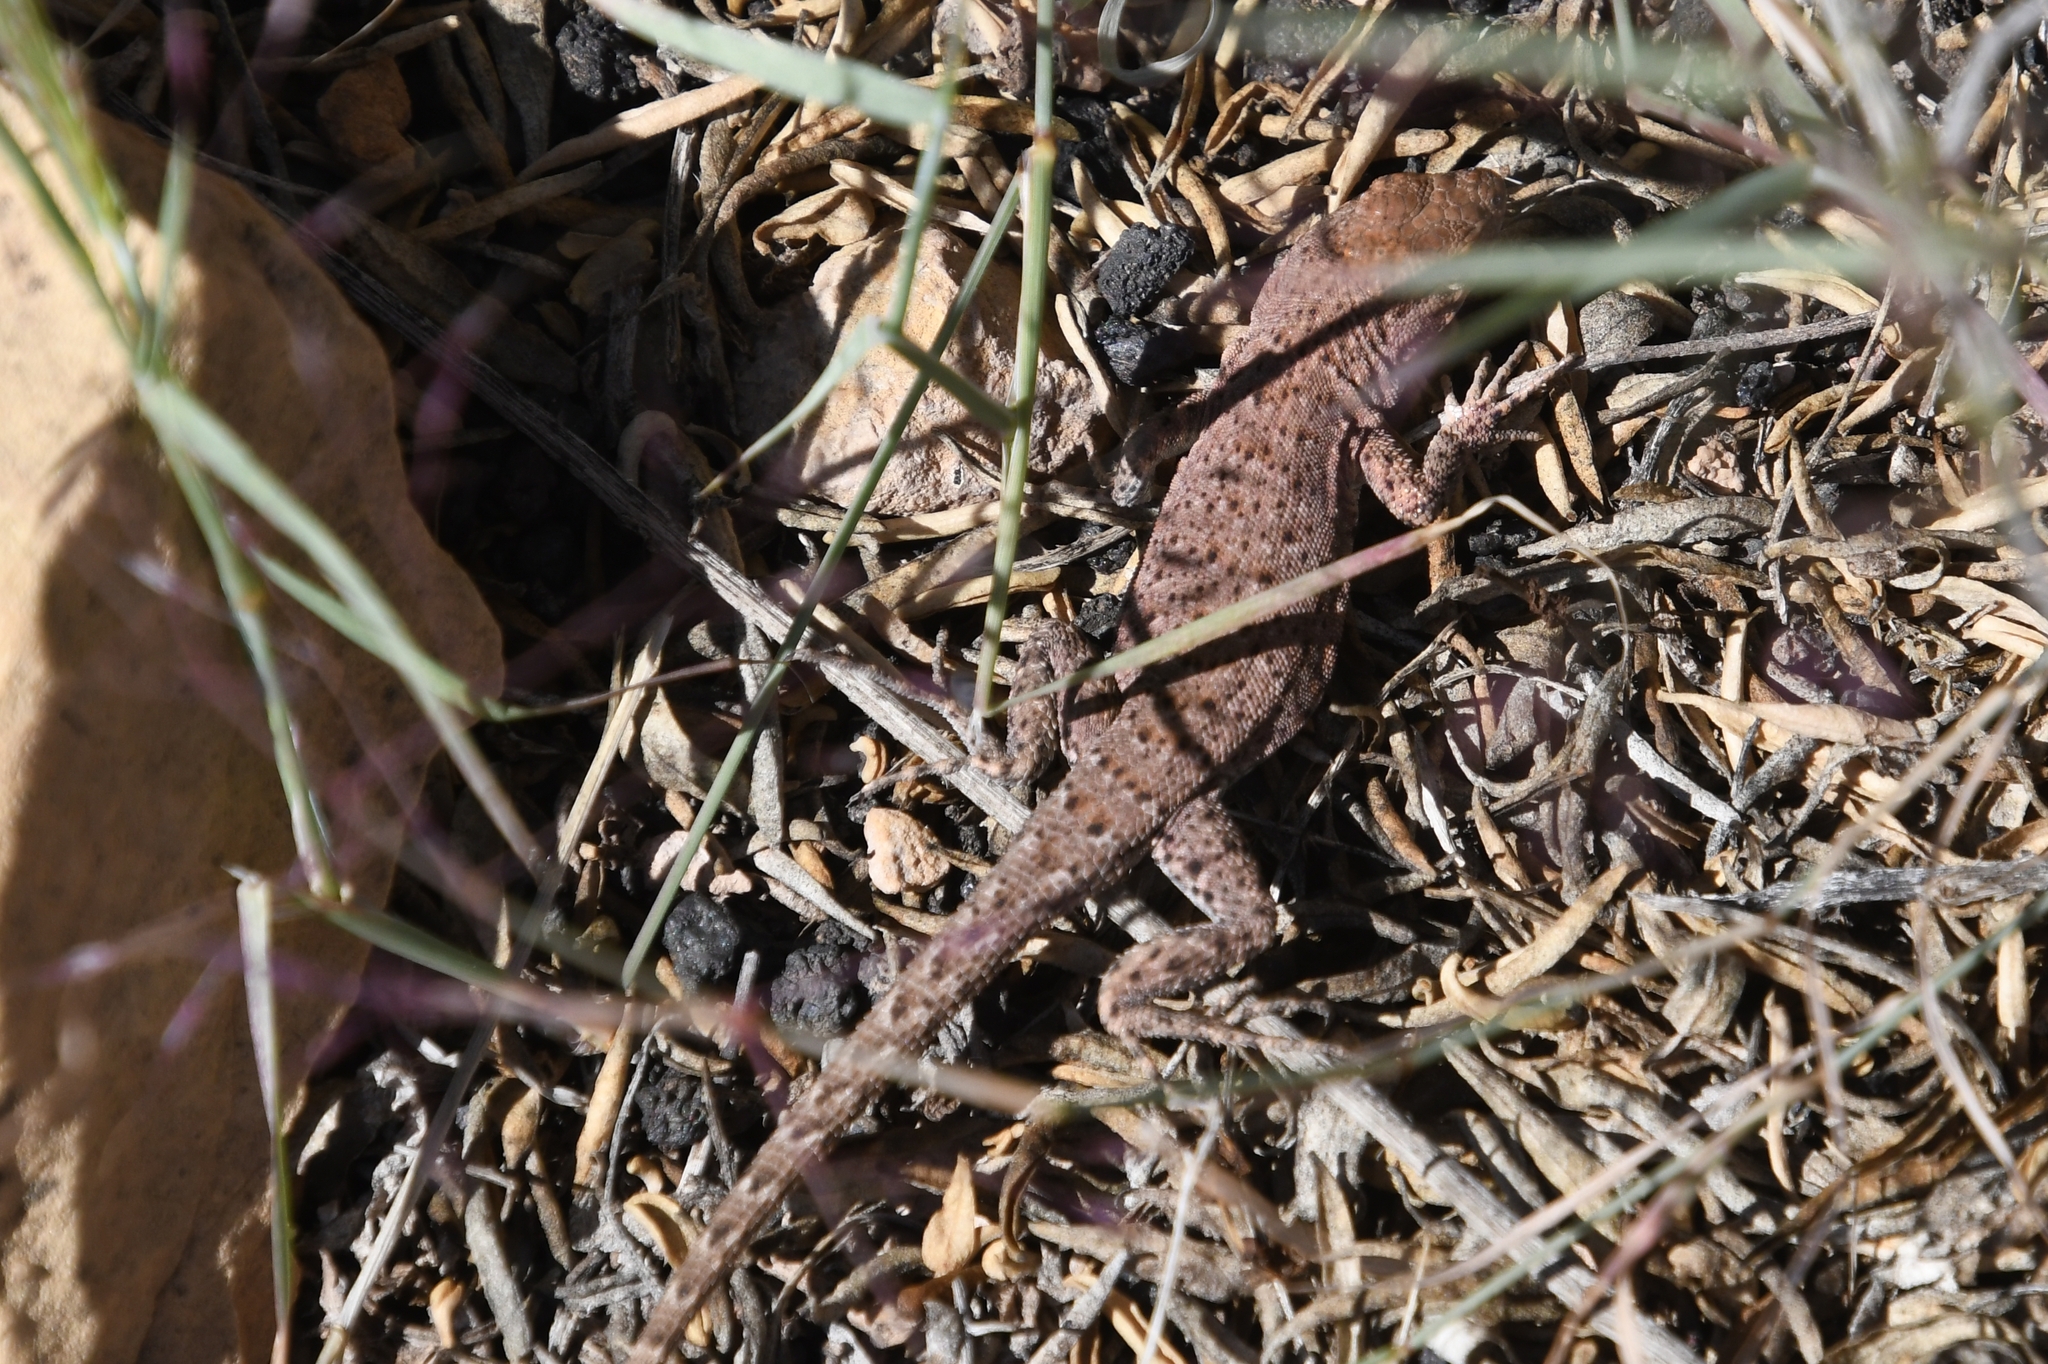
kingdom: Animalia
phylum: Chordata
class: Squamata
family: Phrynosomatidae
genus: Uta
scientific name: Uta stansburiana
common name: Side-blotched lizard
